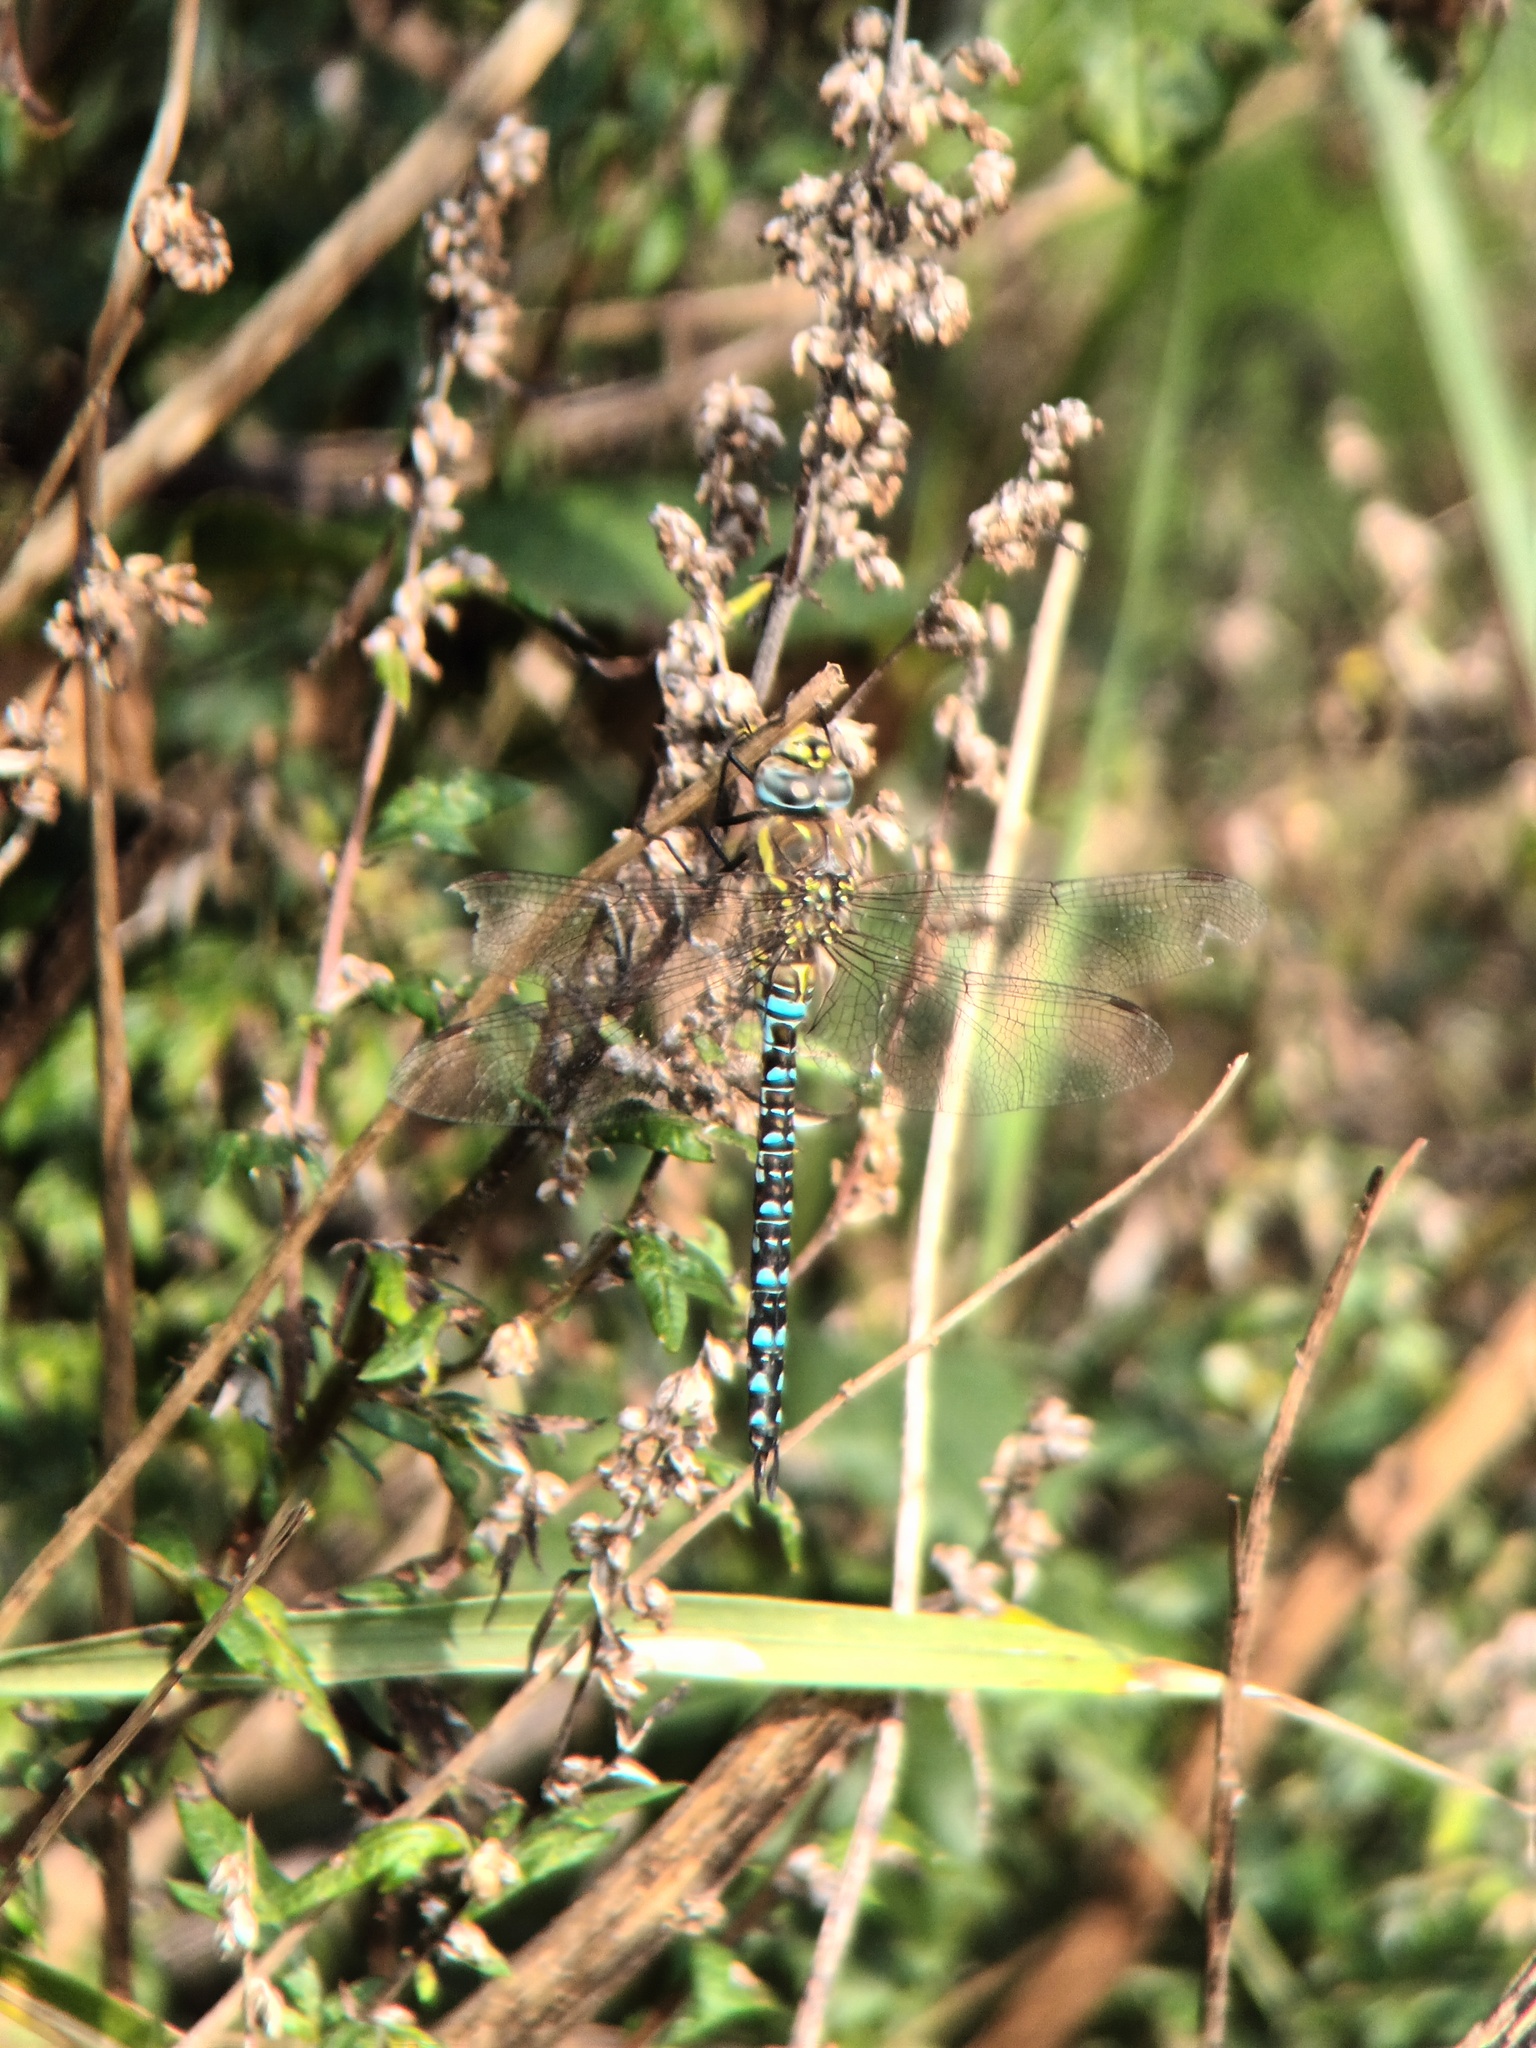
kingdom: Animalia
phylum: Arthropoda
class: Insecta
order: Odonata
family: Aeshnidae
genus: Aeshna
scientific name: Aeshna mixta
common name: Migrant hawker
